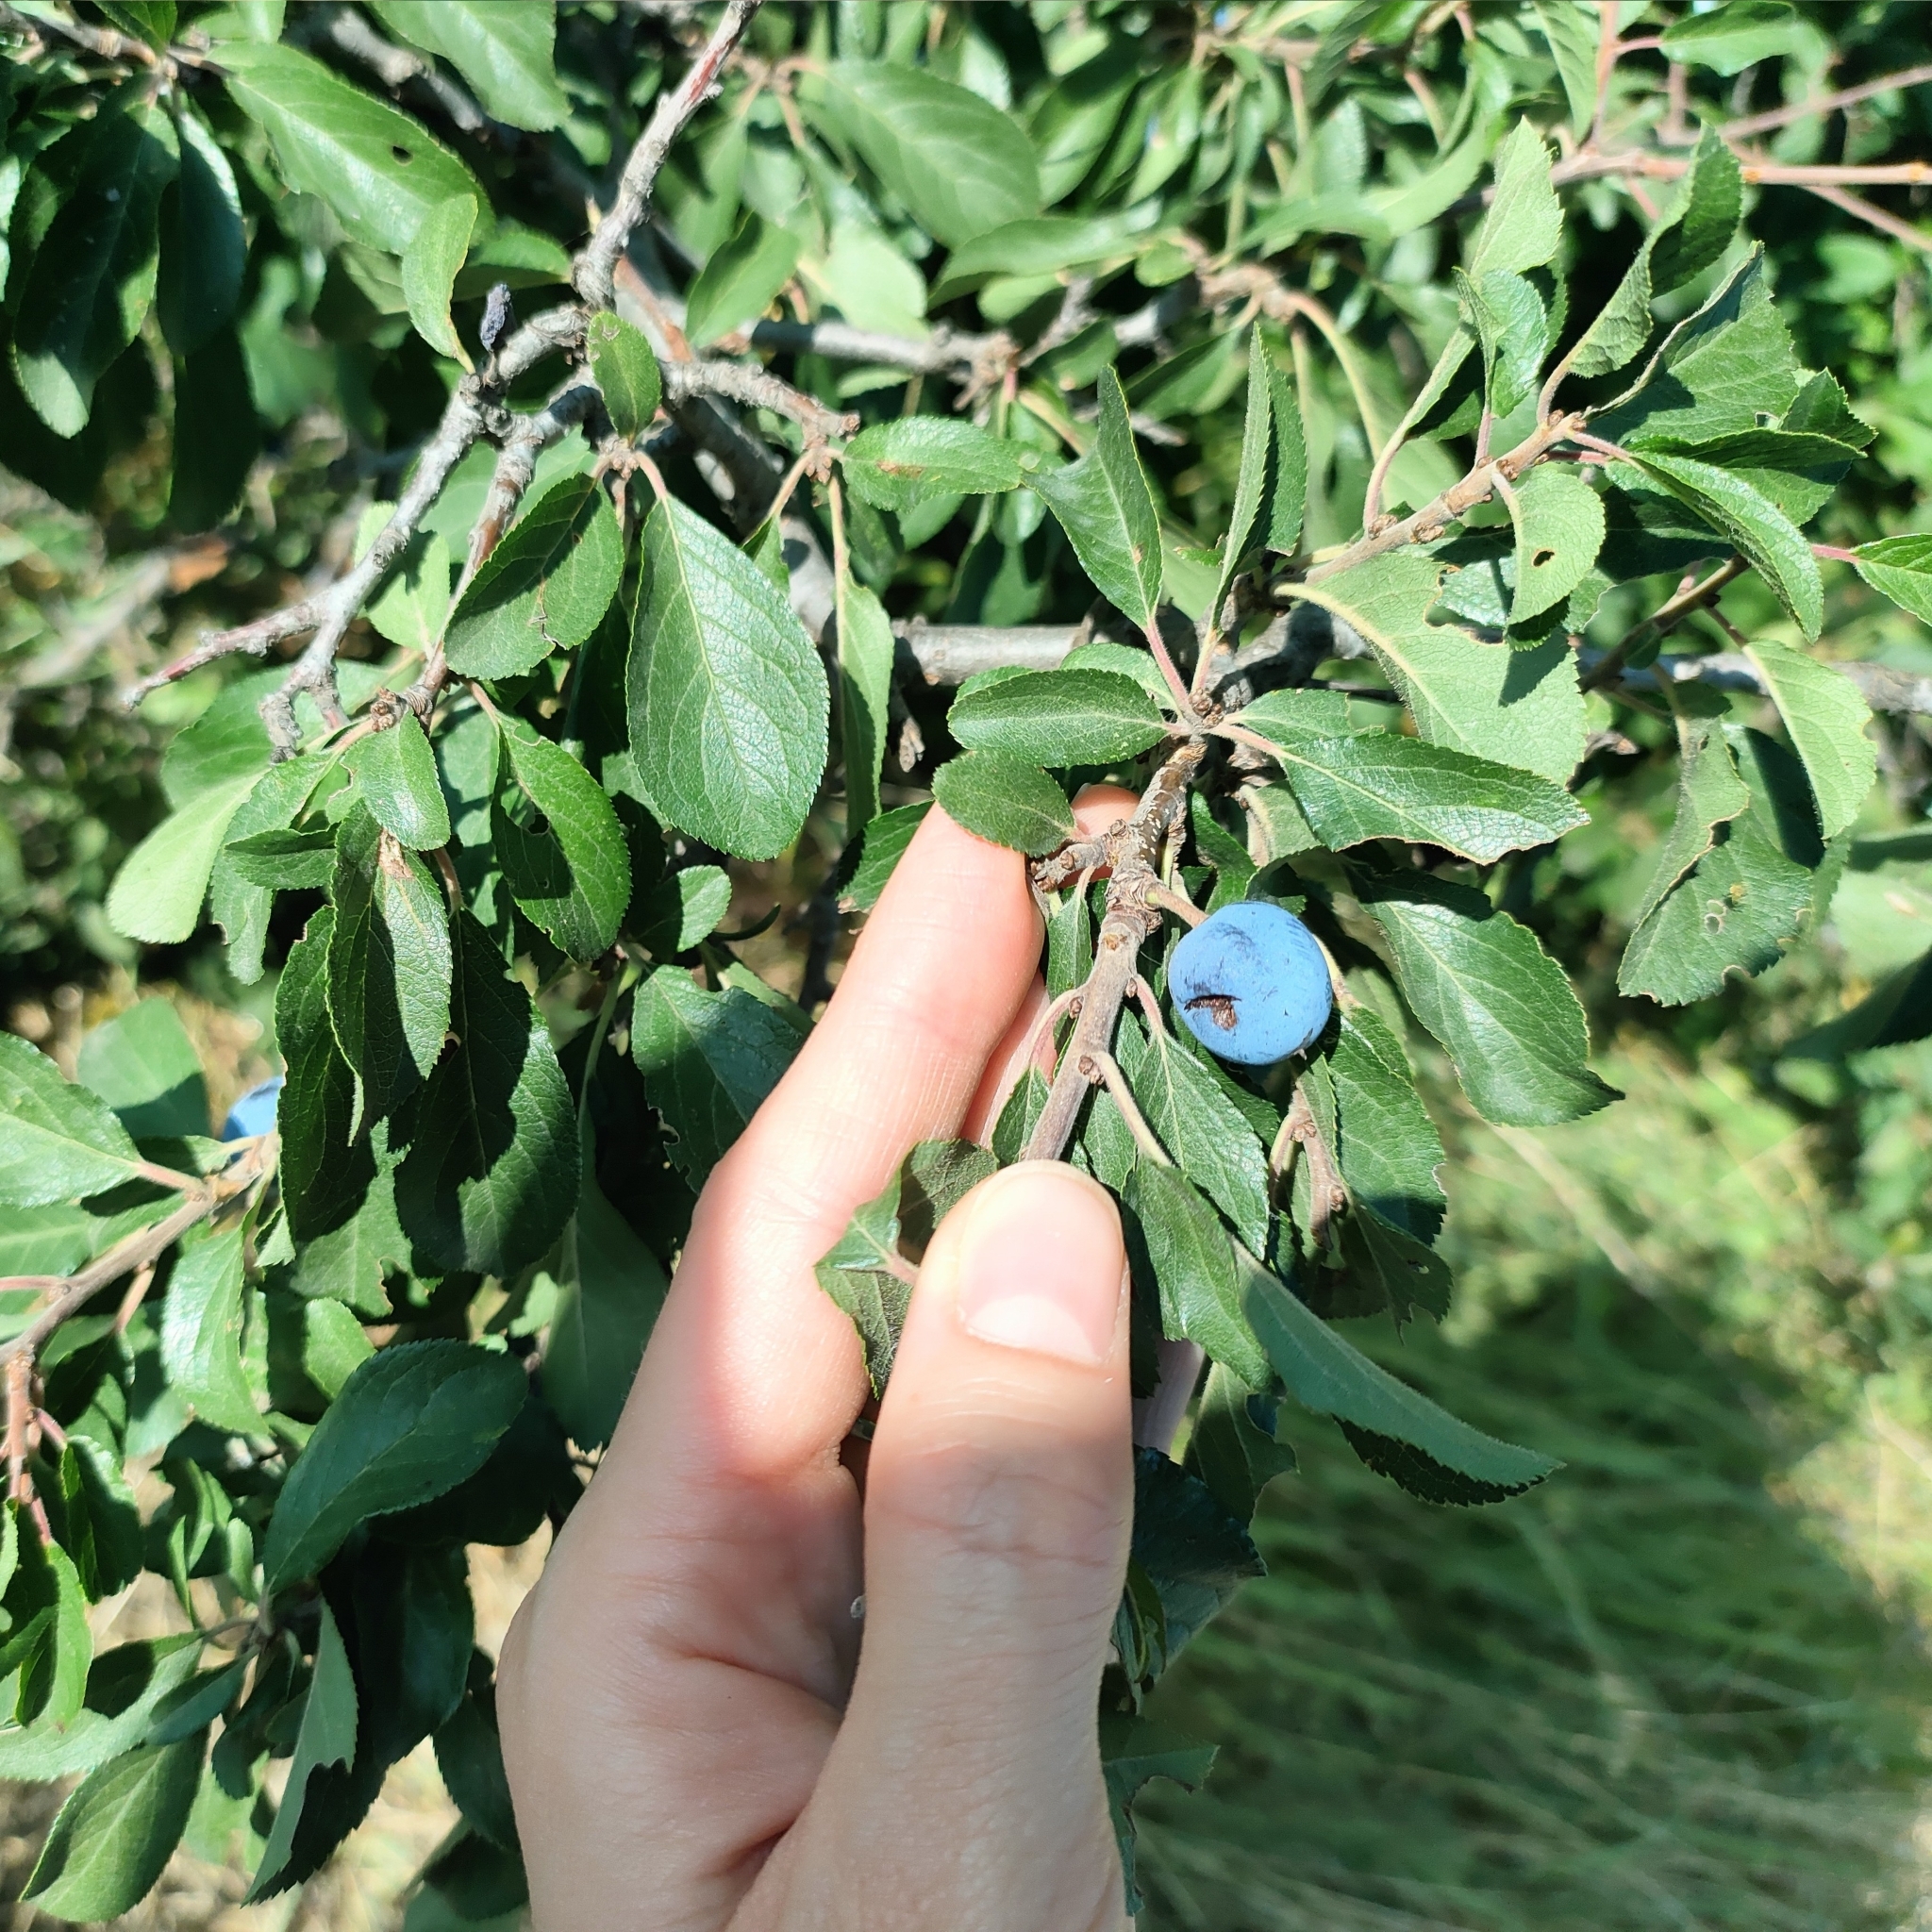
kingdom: Plantae
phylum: Tracheophyta
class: Magnoliopsida
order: Rosales
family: Rosaceae
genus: Prunus
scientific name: Prunus spinosa
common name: Blackthorn
